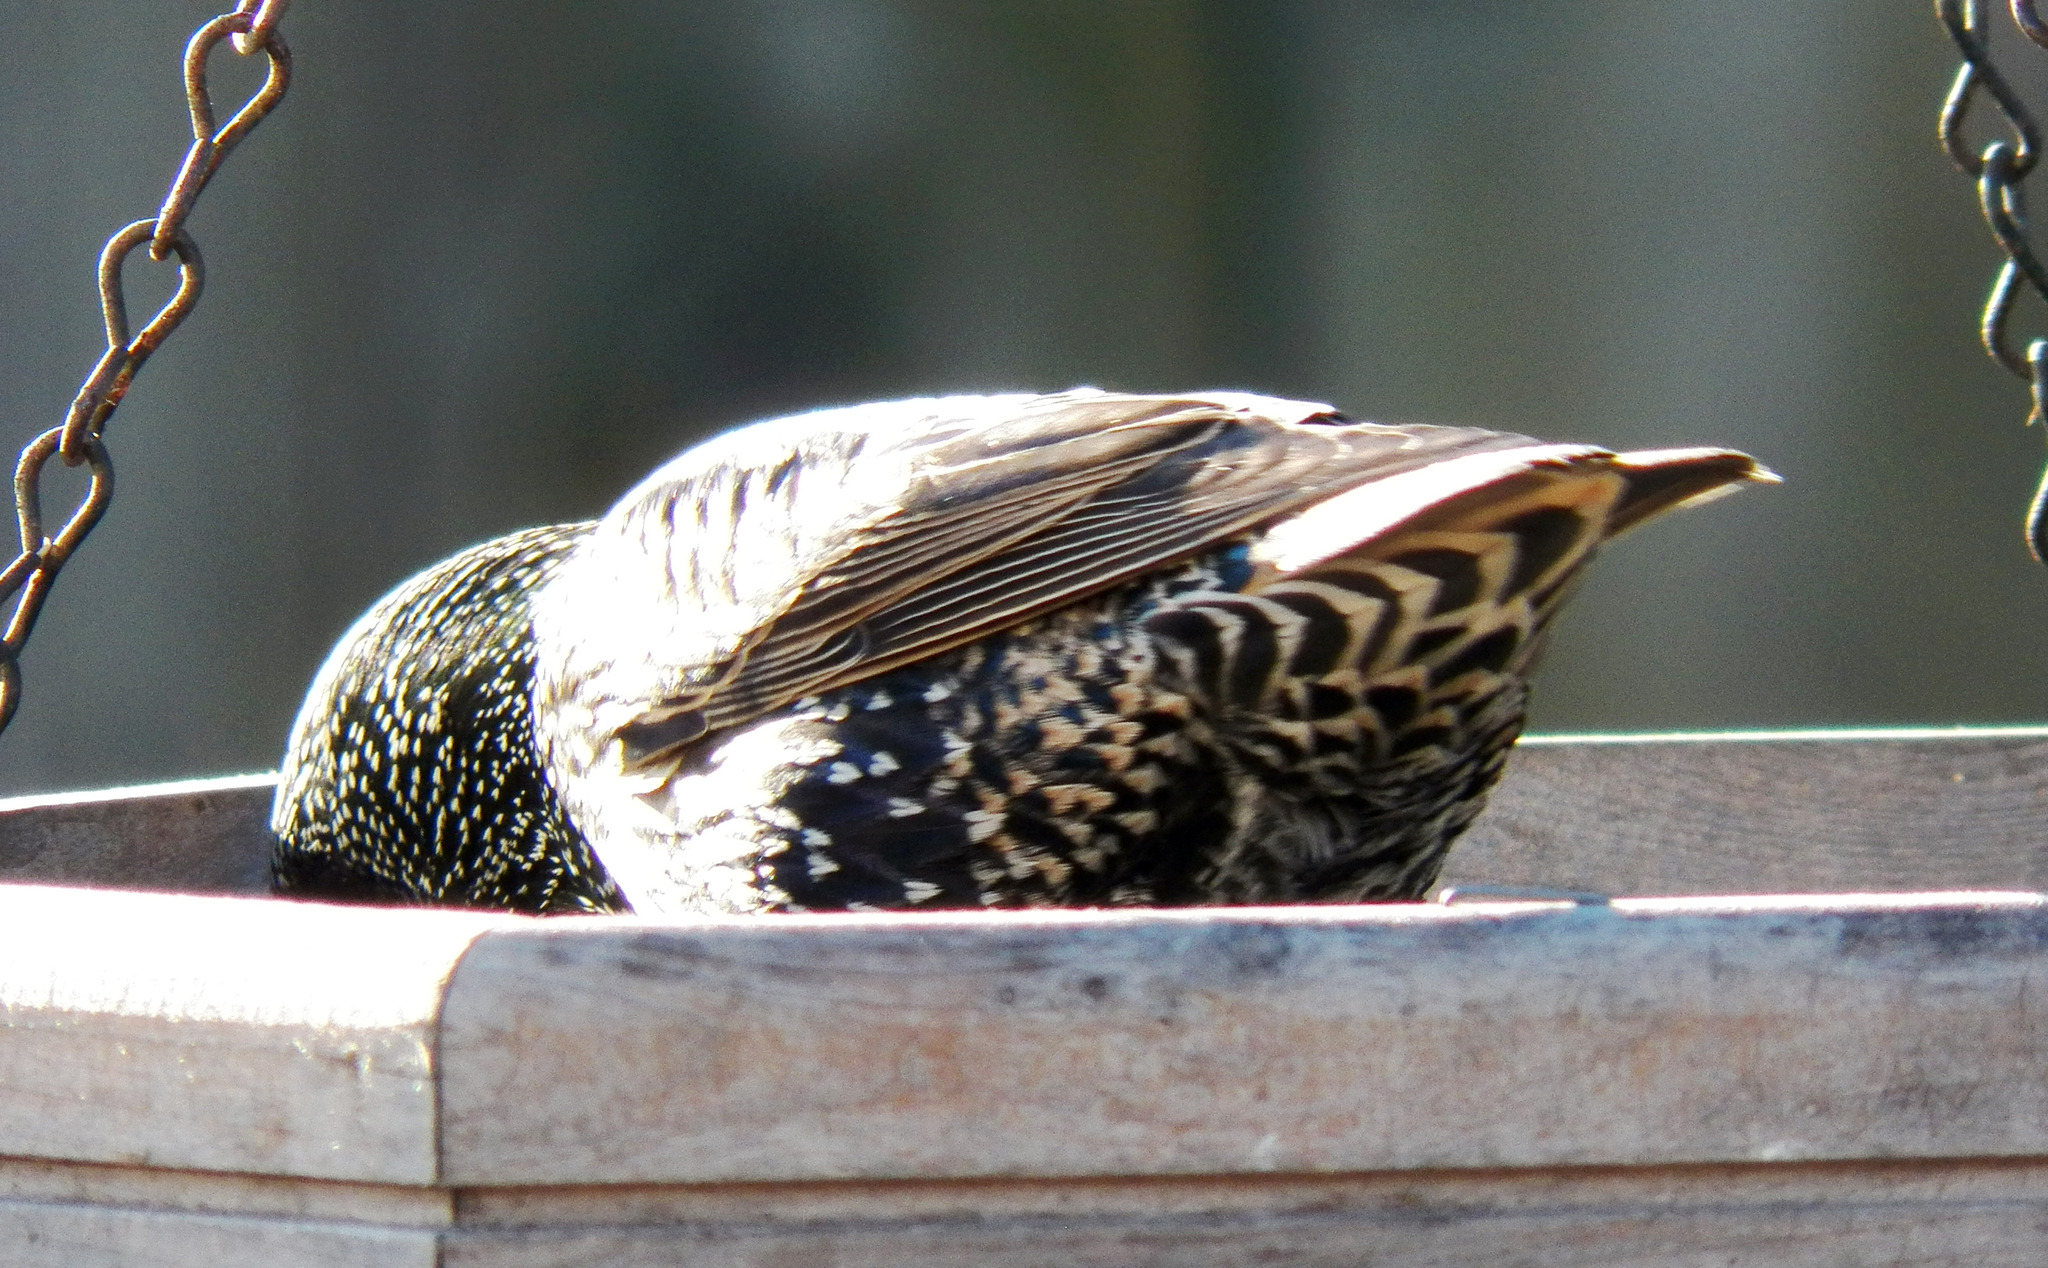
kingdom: Animalia
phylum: Chordata
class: Aves
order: Passeriformes
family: Sturnidae
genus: Sturnus
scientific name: Sturnus vulgaris
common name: Common starling
